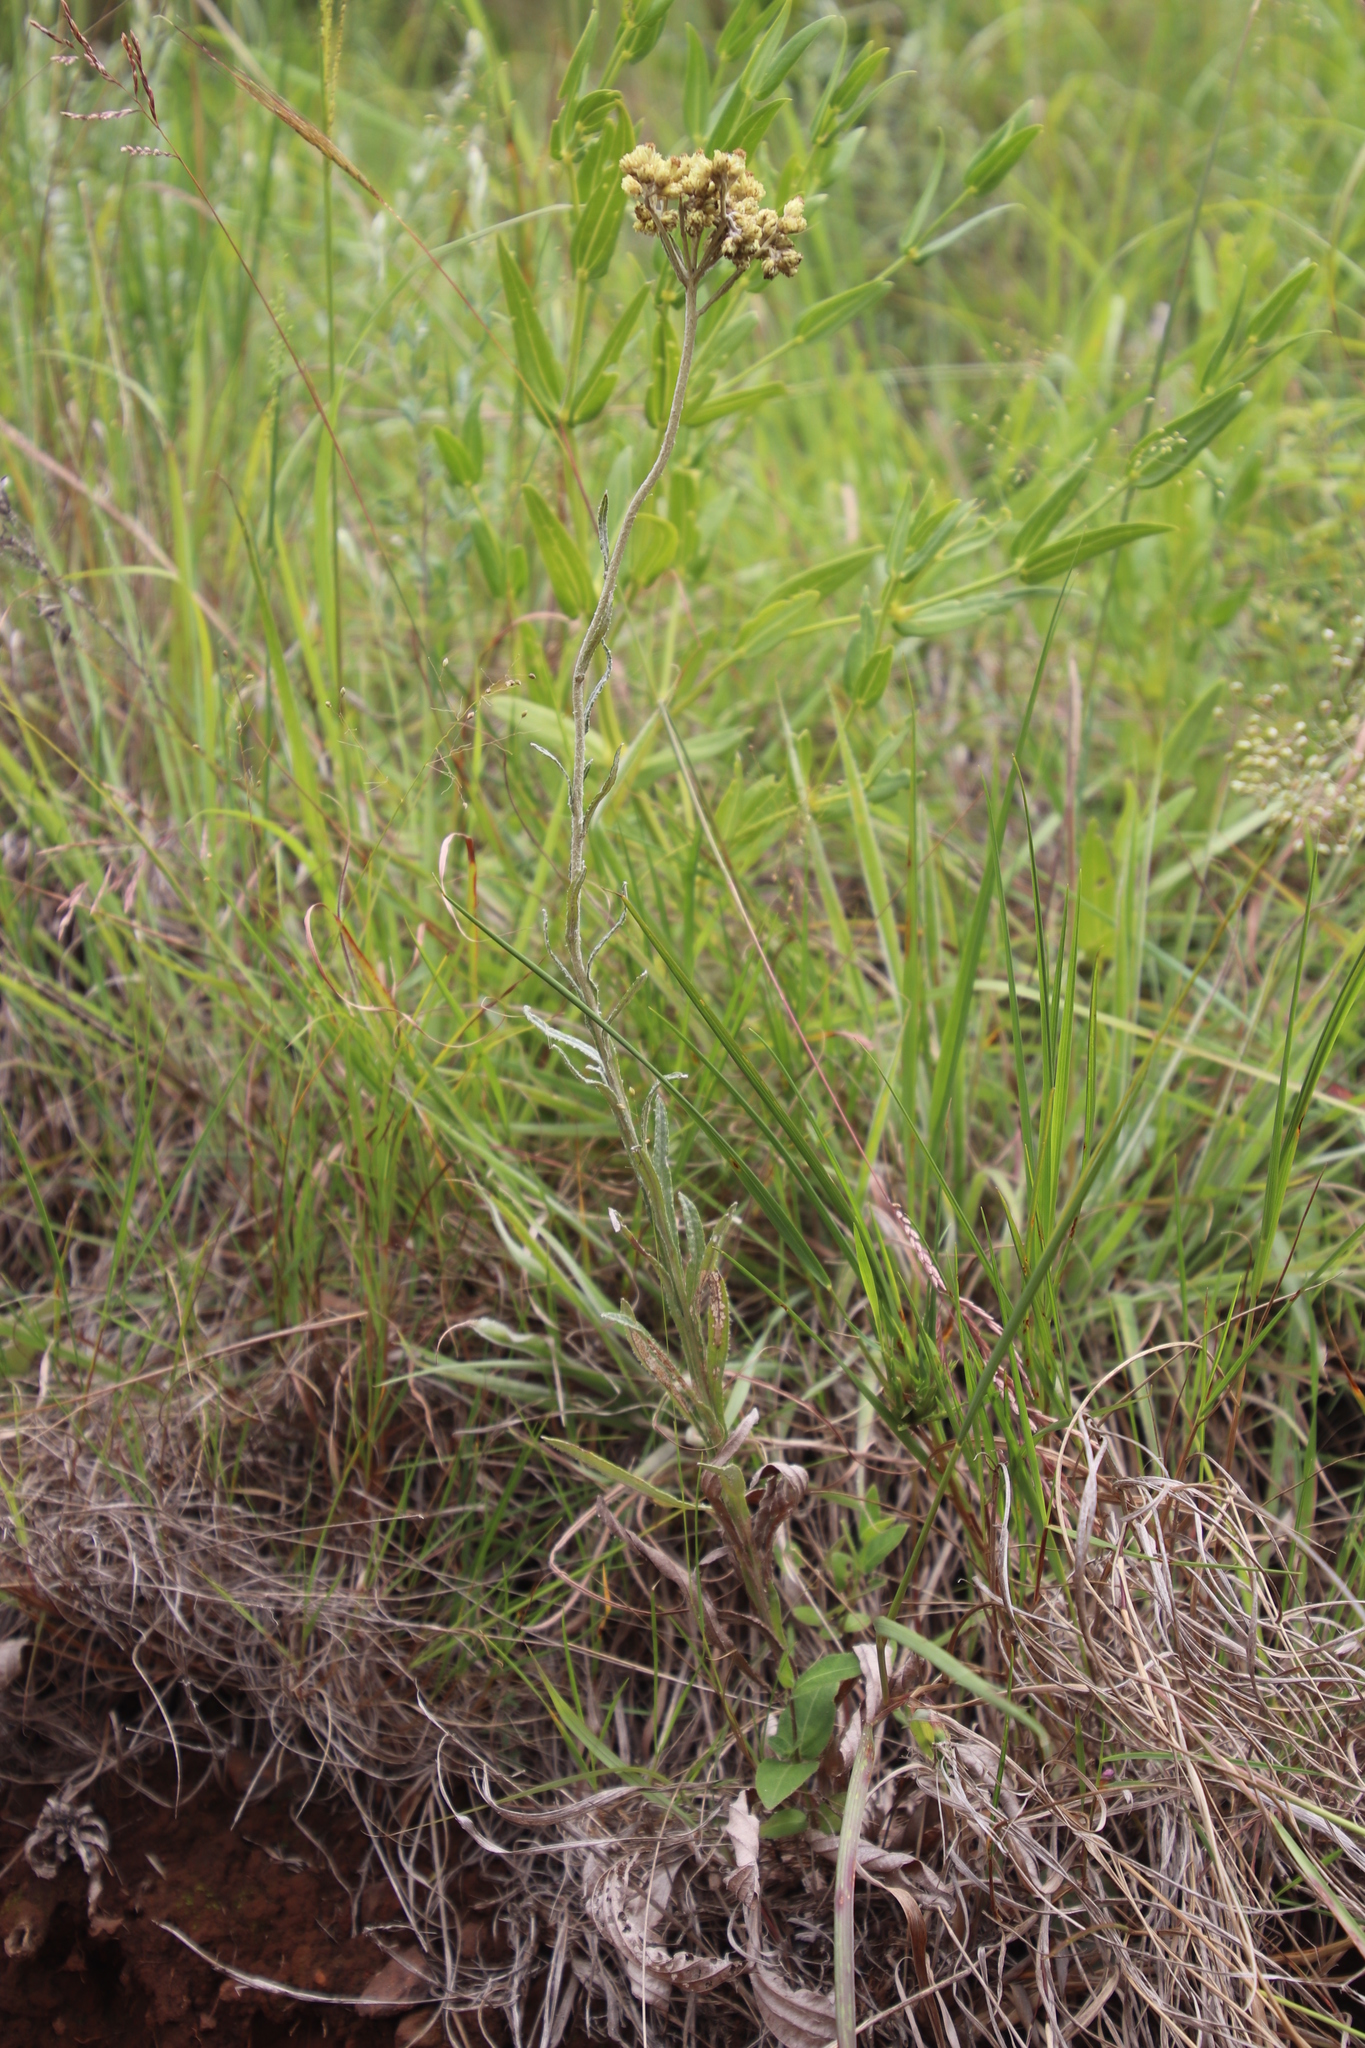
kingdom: Plantae
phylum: Tracheophyta
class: Magnoliopsida
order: Asterales
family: Asteraceae
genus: Helichrysum
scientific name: Helichrysum miconiifolium
